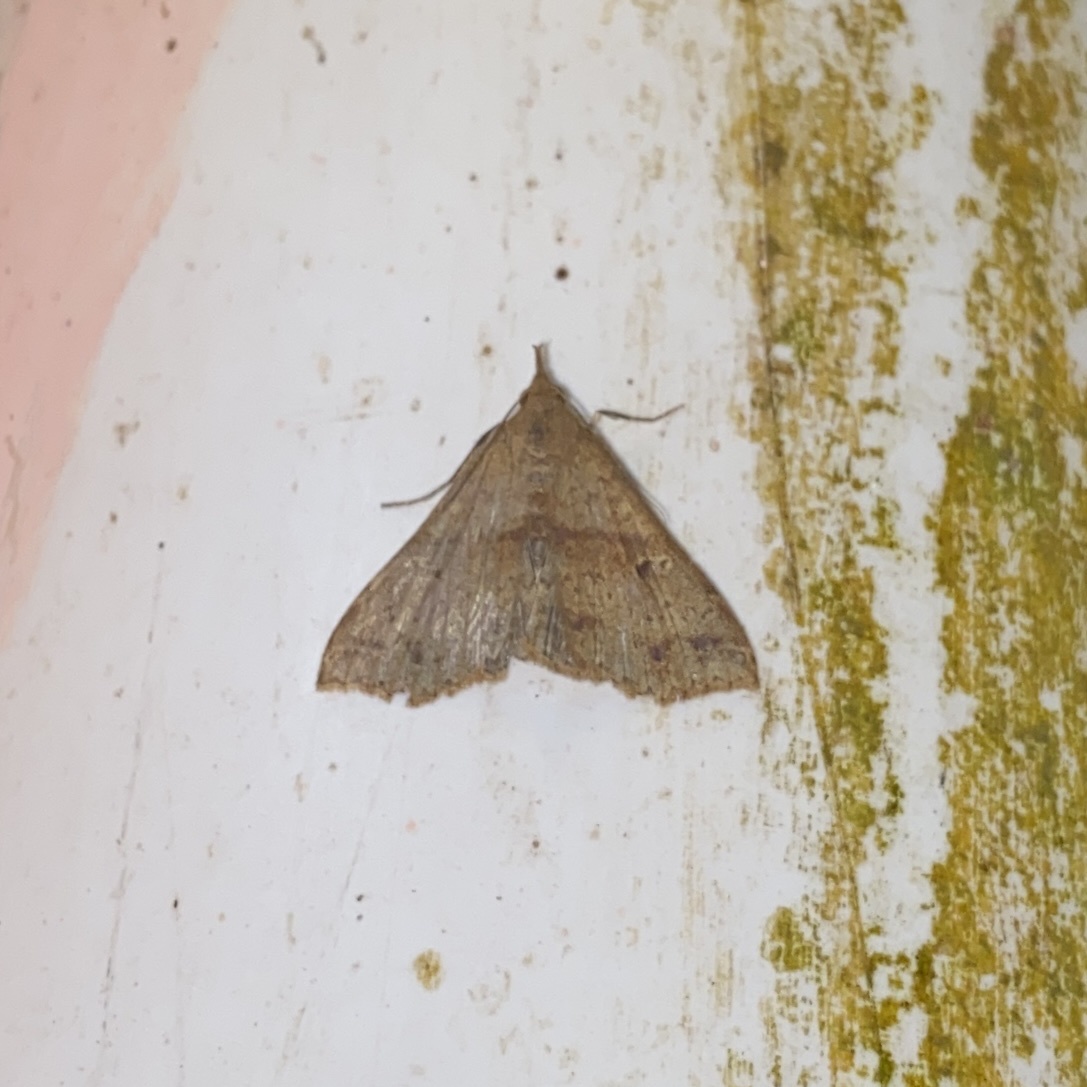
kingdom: Animalia
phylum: Arthropoda
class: Insecta
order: Lepidoptera
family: Erebidae
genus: Renia
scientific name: Renia clavalis
